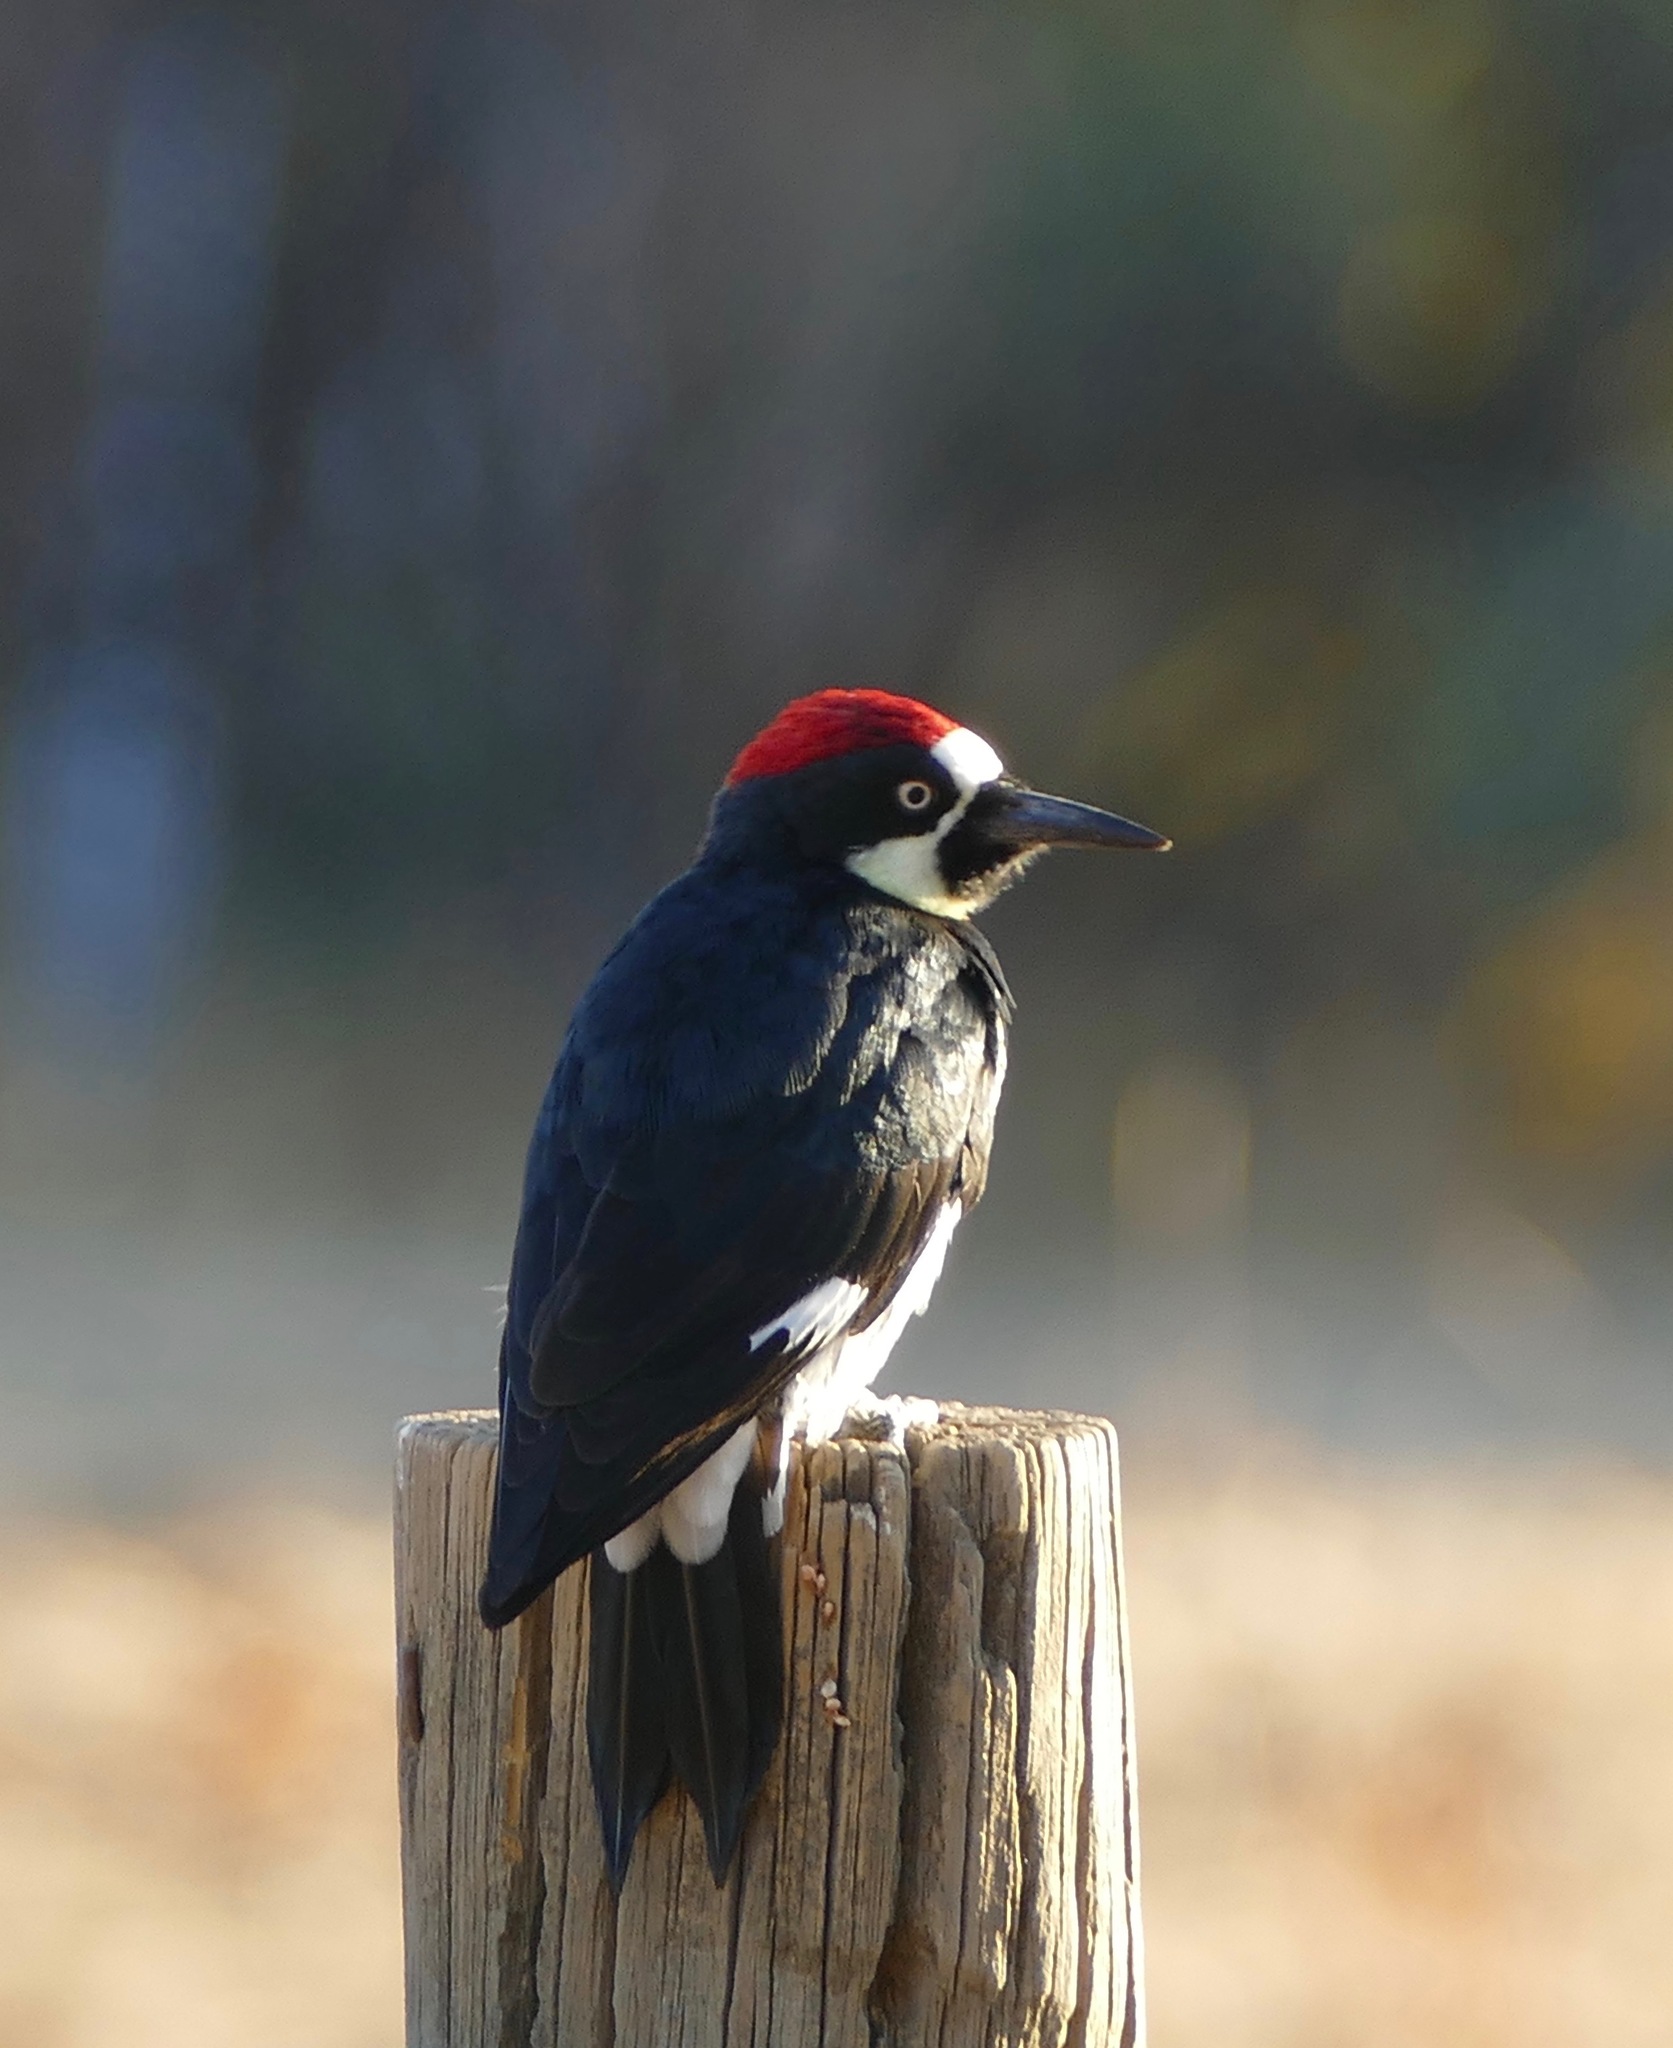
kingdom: Animalia
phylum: Chordata
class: Aves
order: Piciformes
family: Picidae
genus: Melanerpes
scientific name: Melanerpes formicivorus
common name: Acorn woodpecker
